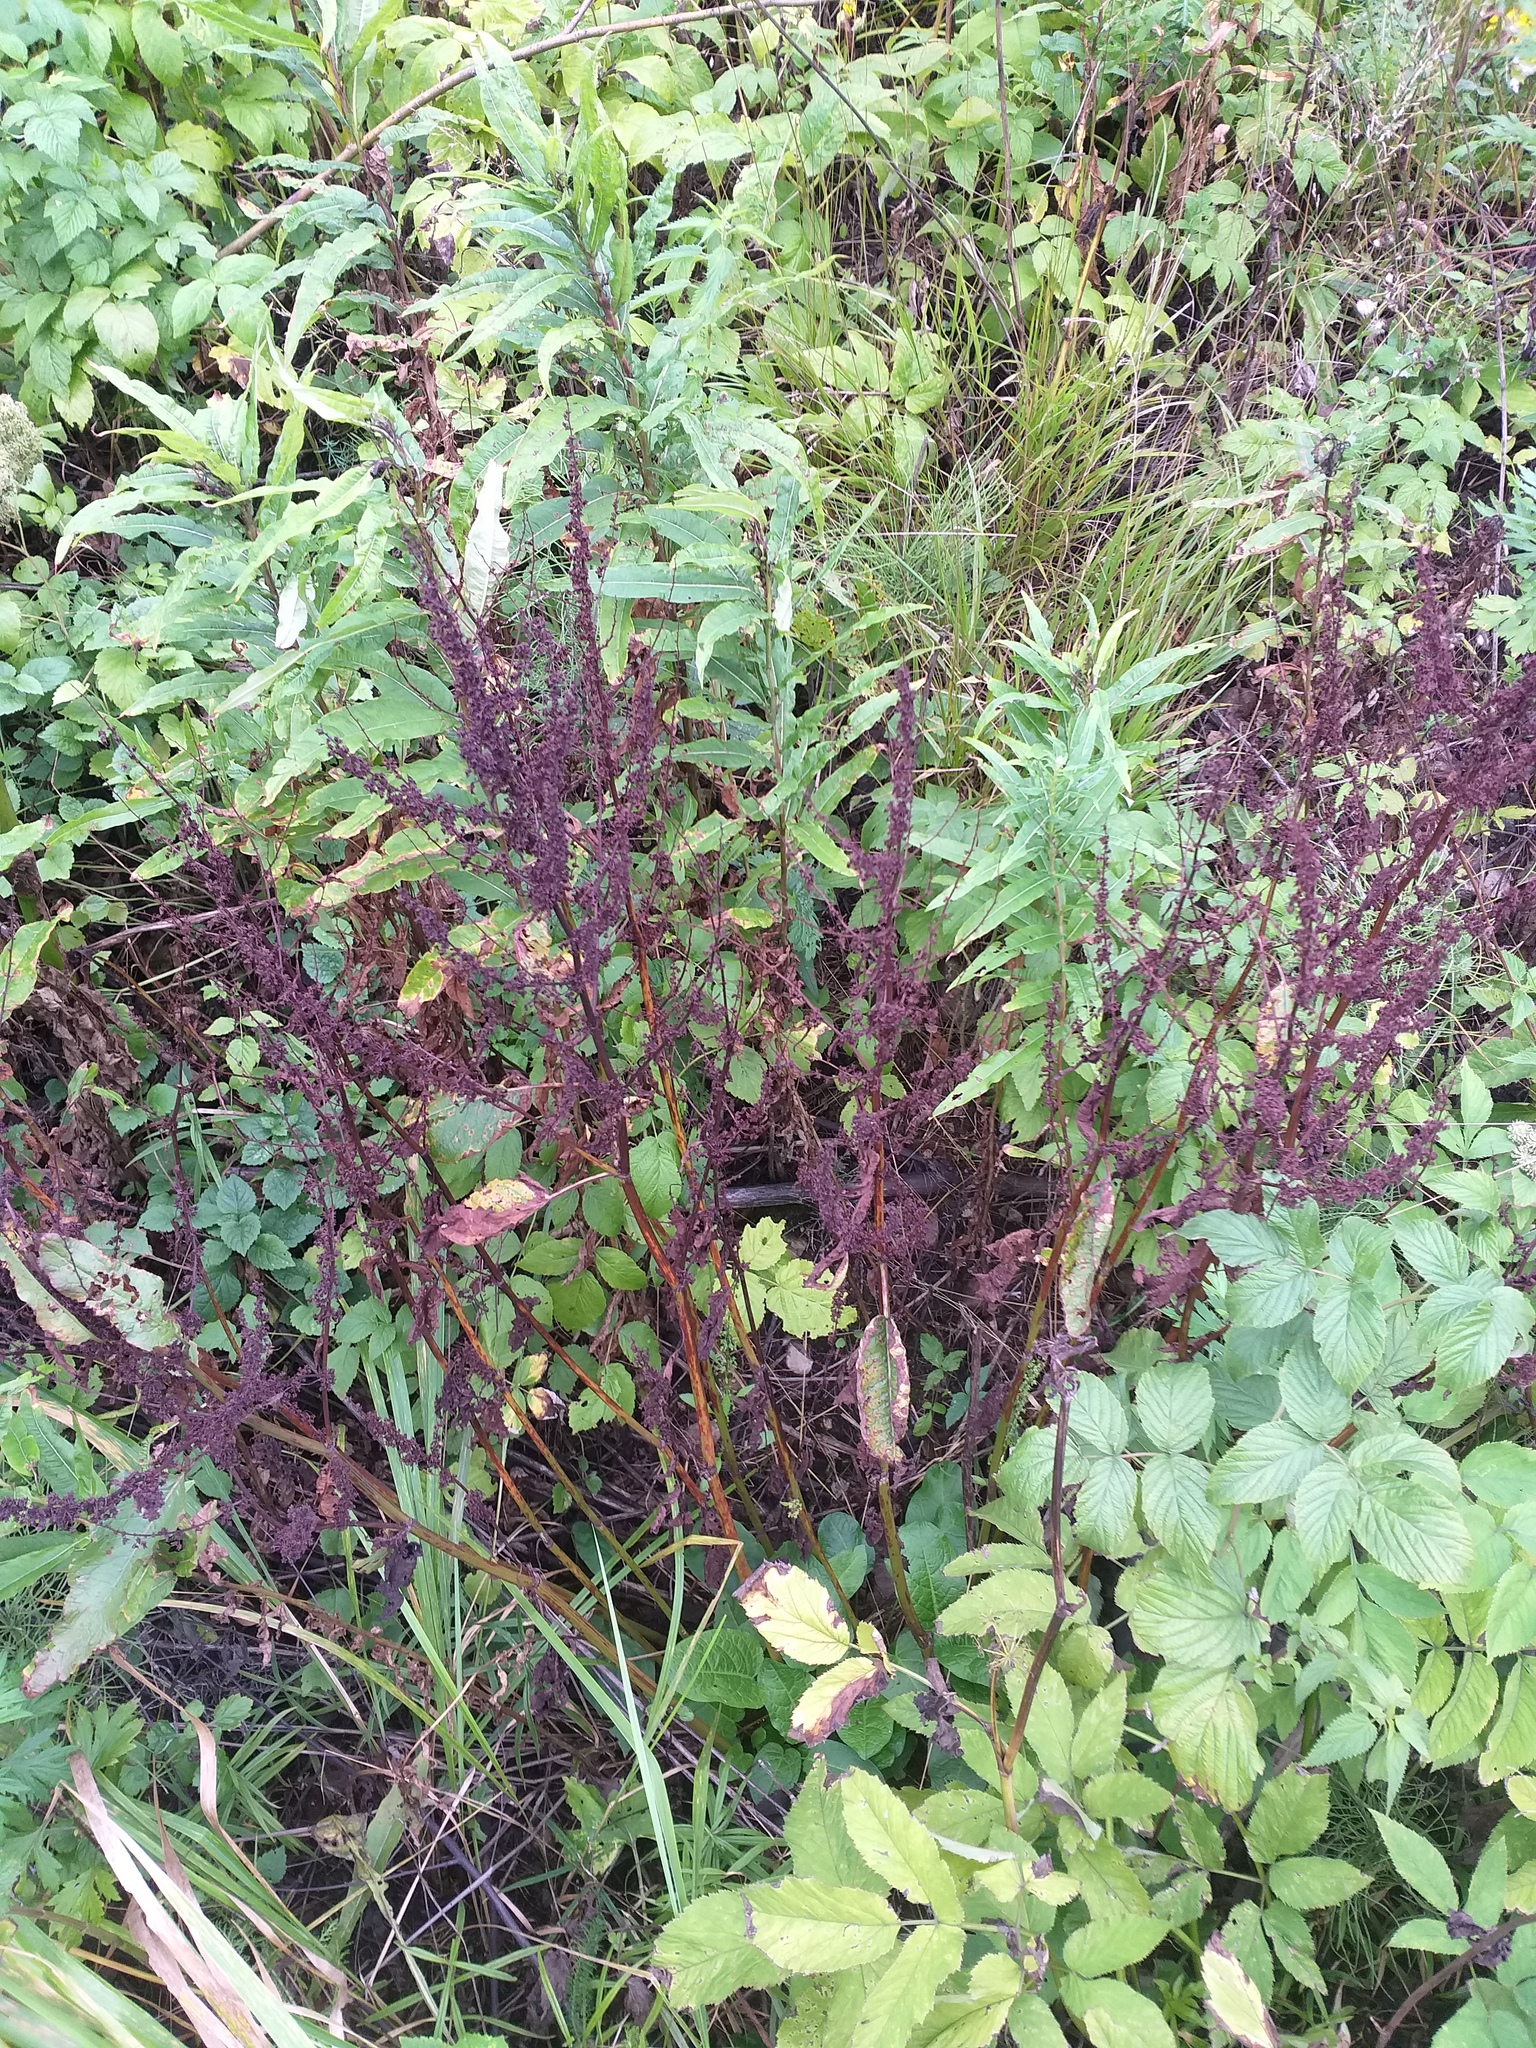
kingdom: Plantae
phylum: Tracheophyta
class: Magnoliopsida
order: Caryophyllales
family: Polygonaceae
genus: Rumex
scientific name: Rumex obtusifolius
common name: Bitter dock
